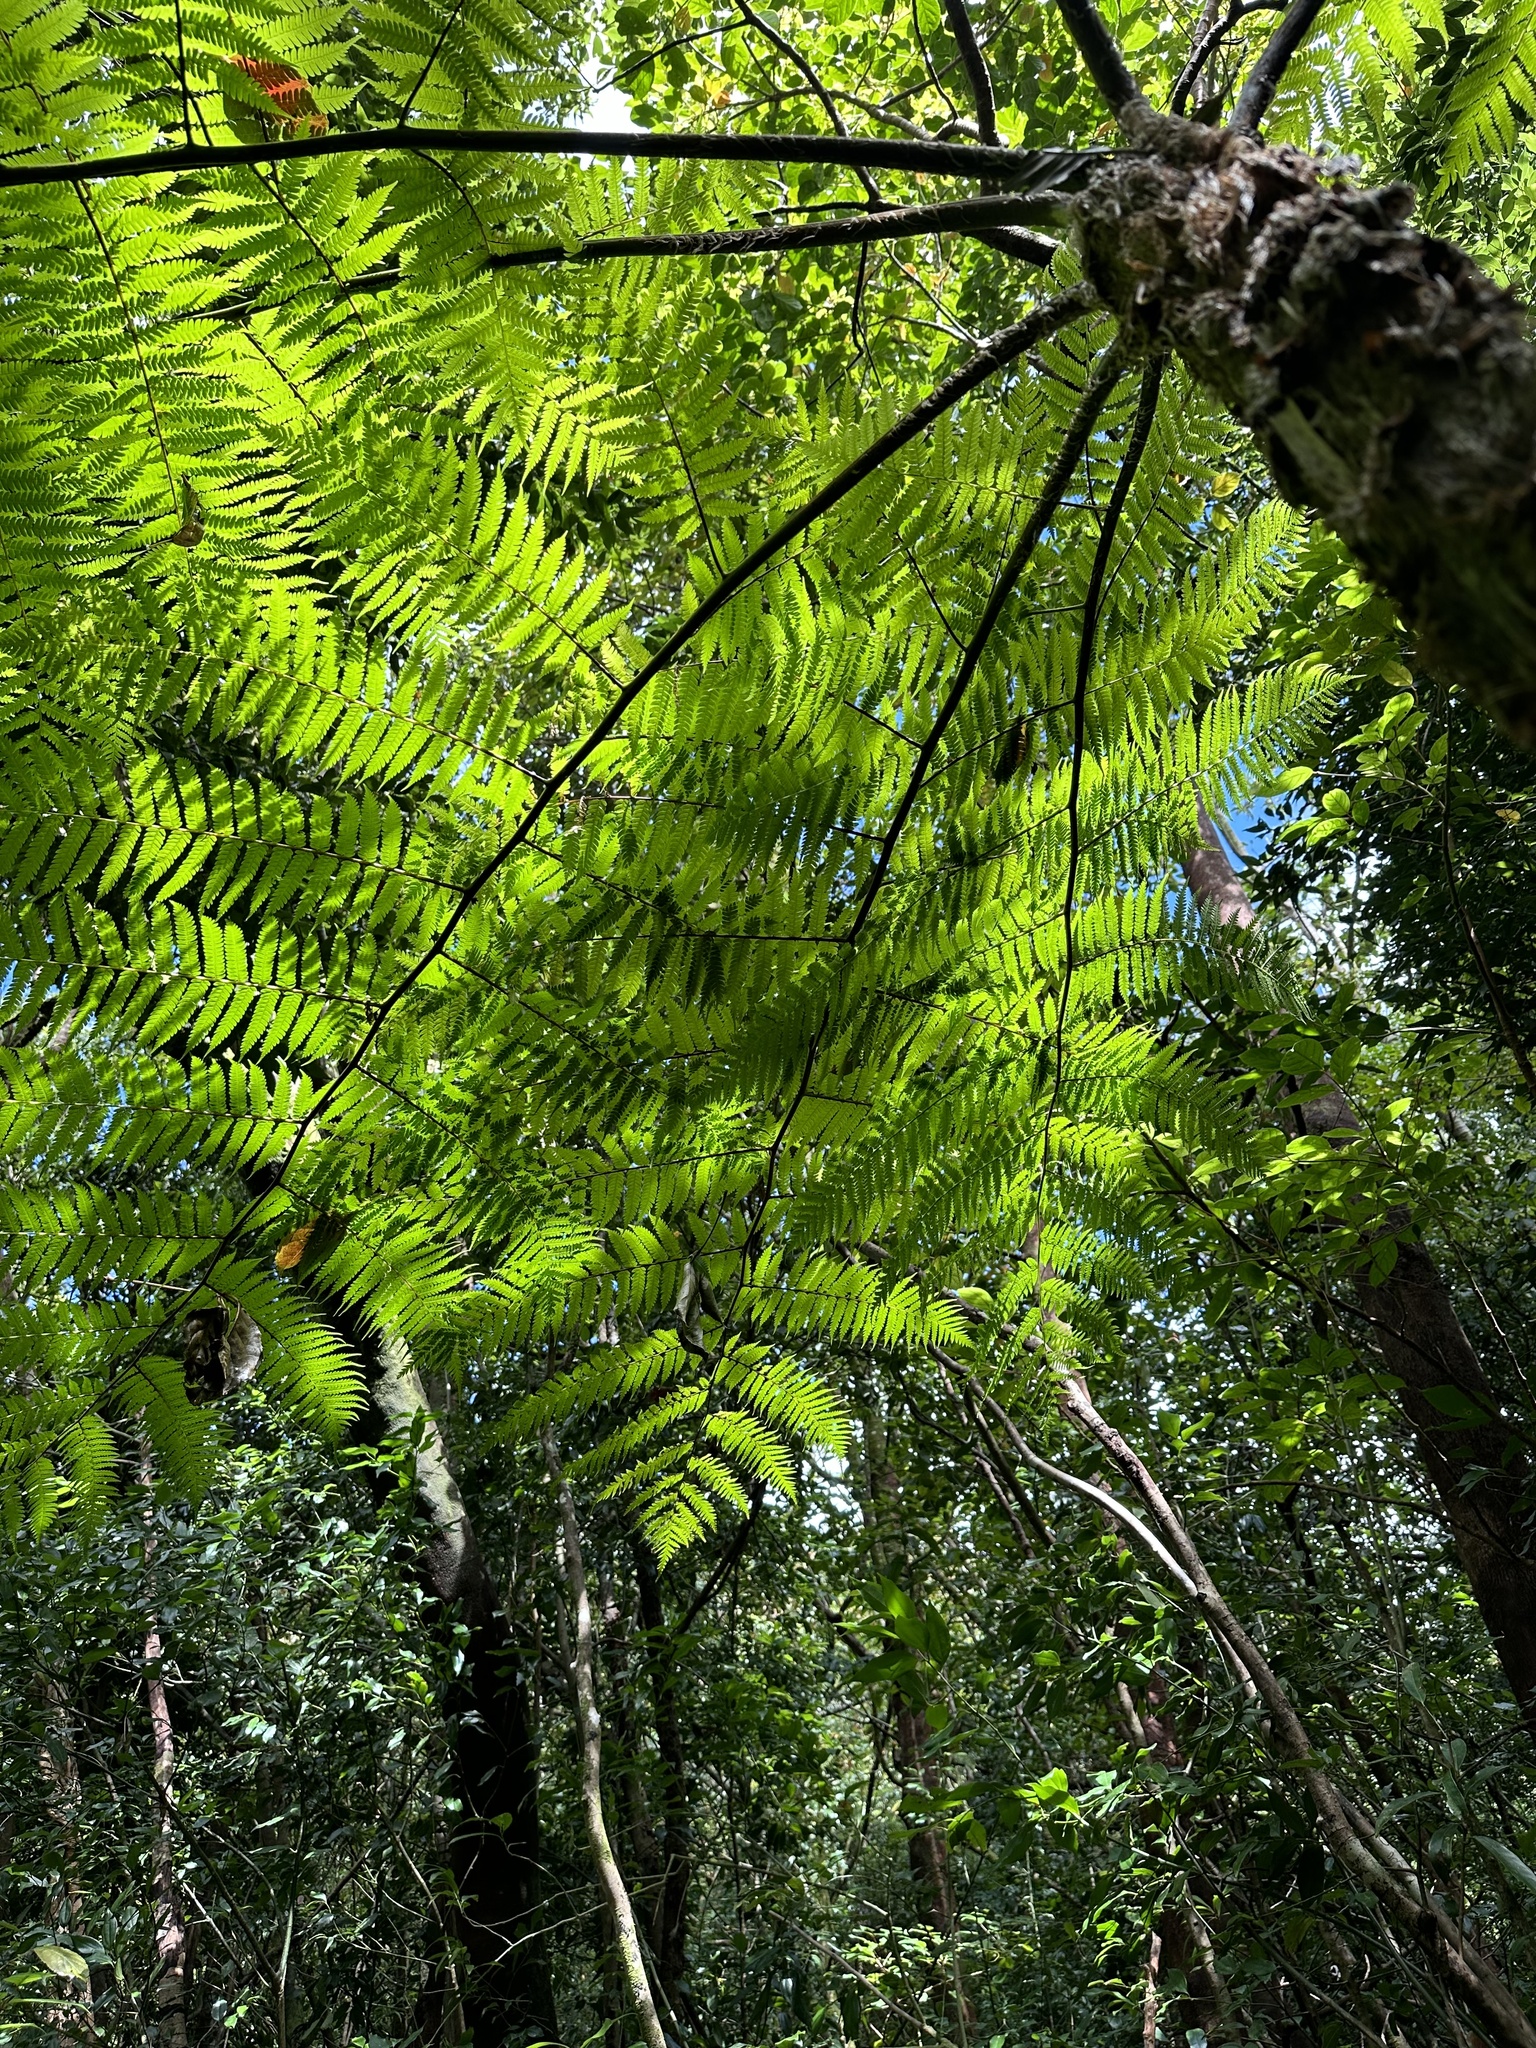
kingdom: Plantae
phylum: Tracheophyta
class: Polypodiopsida
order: Cyatheales
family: Cyatheaceae
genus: Sphaeropteris
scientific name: Sphaeropteris cooperi
